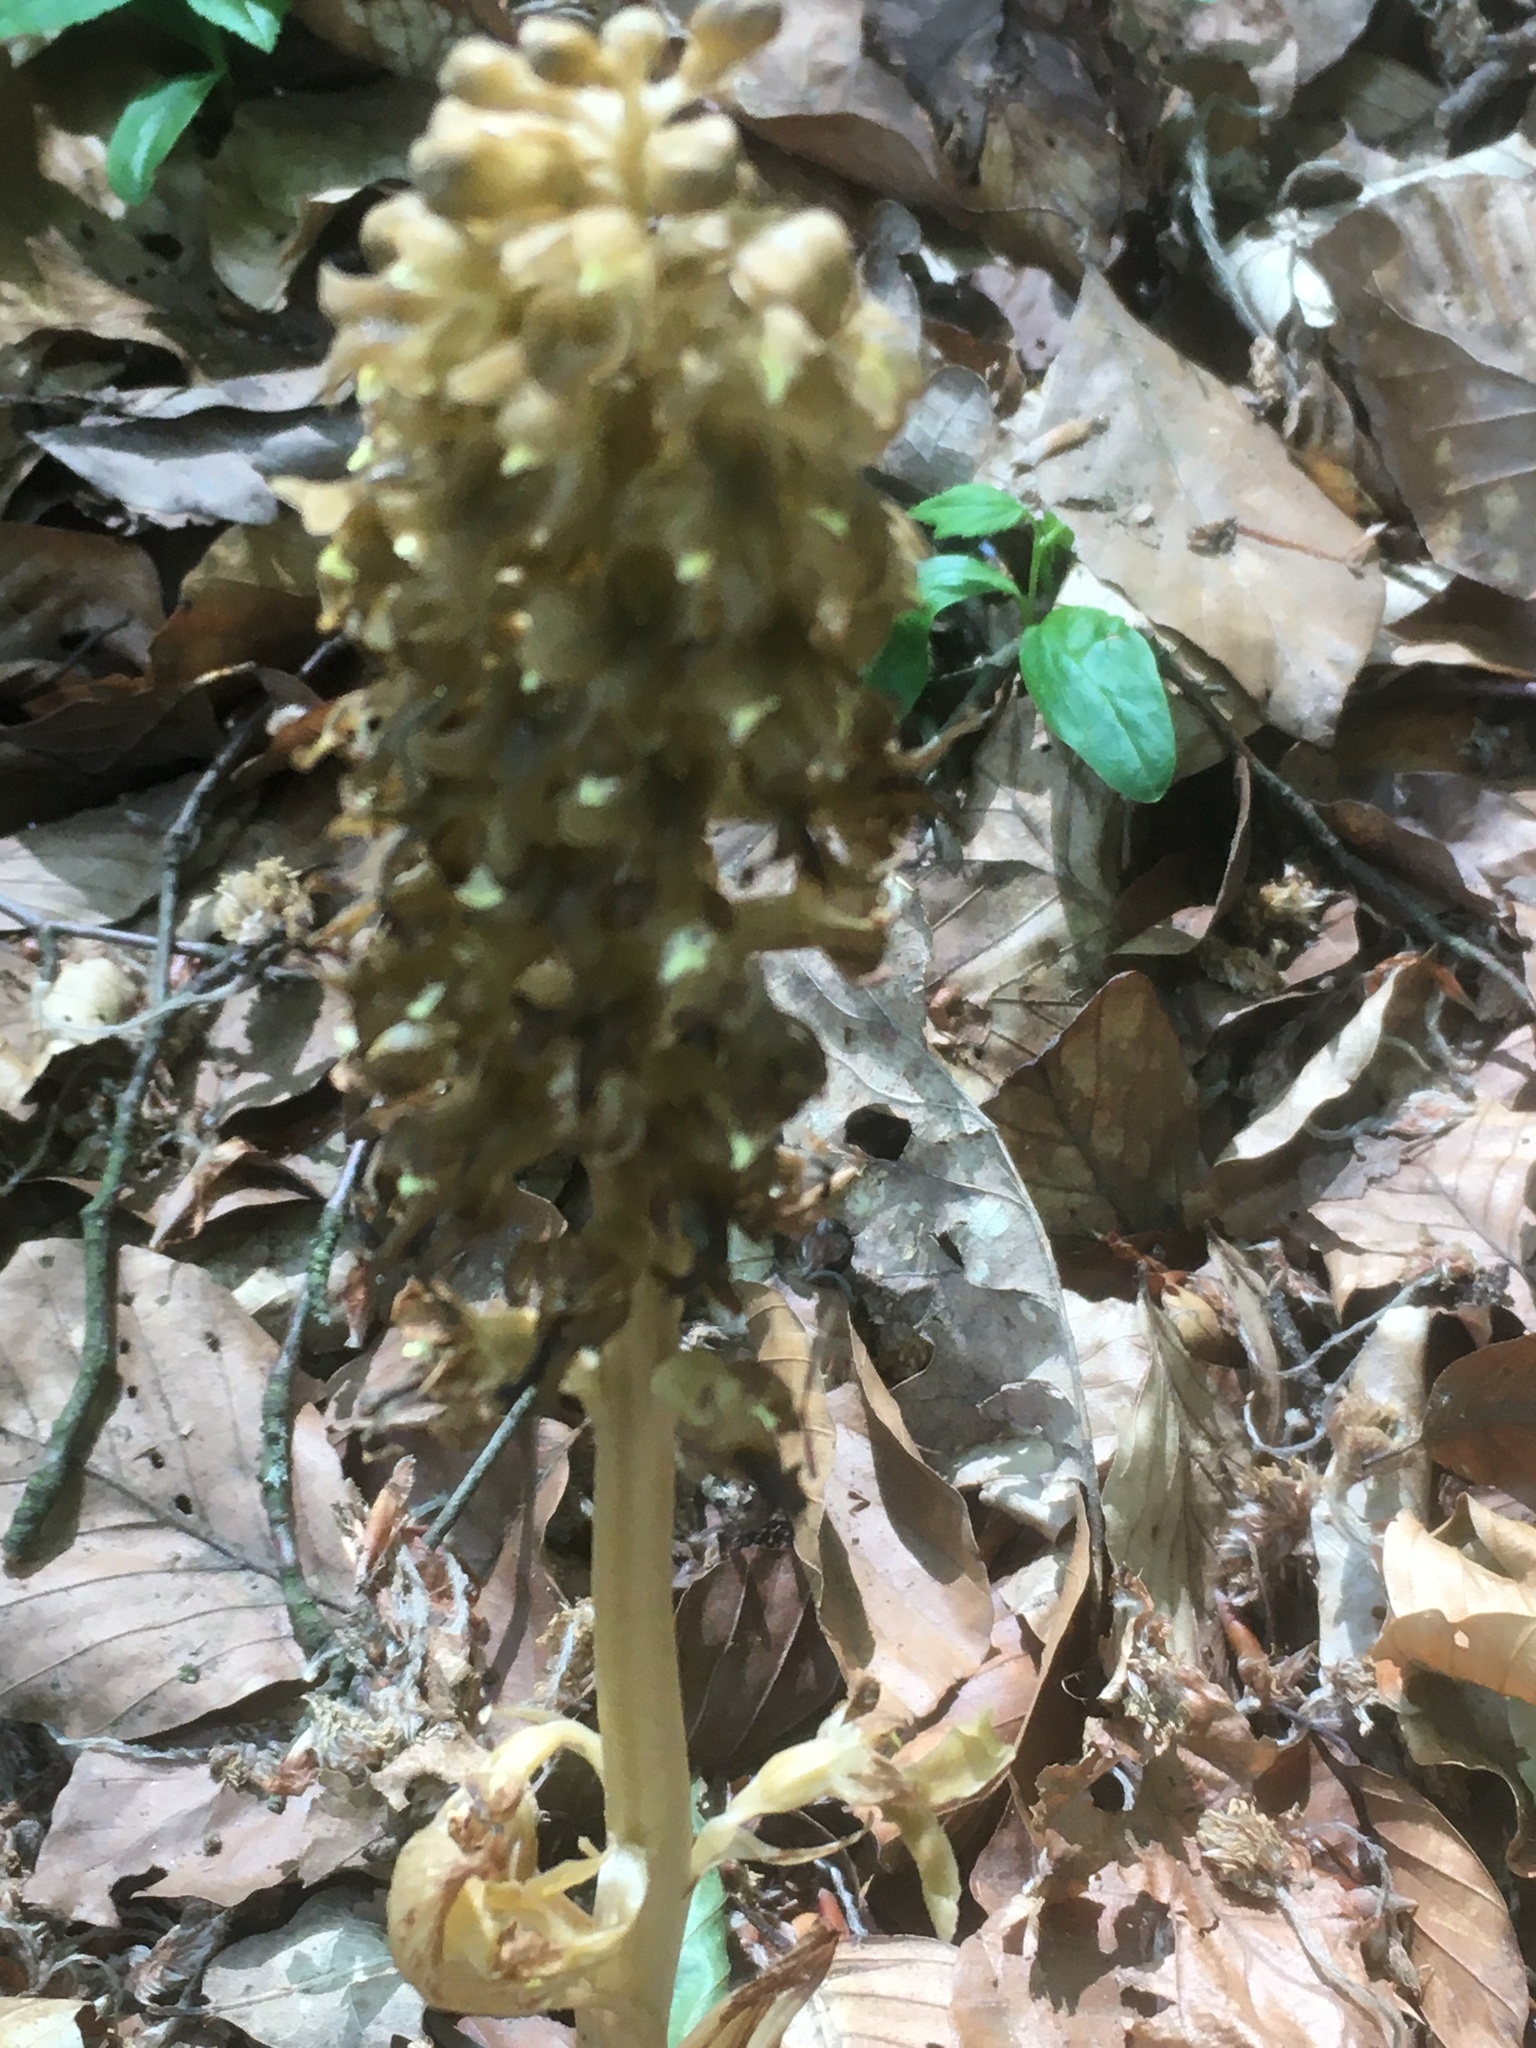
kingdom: Plantae
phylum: Tracheophyta
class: Liliopsida
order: Asparagales
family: Orchidaceae
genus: Neottia
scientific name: Neottia nidus-avis
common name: Bird's-nest orchid
